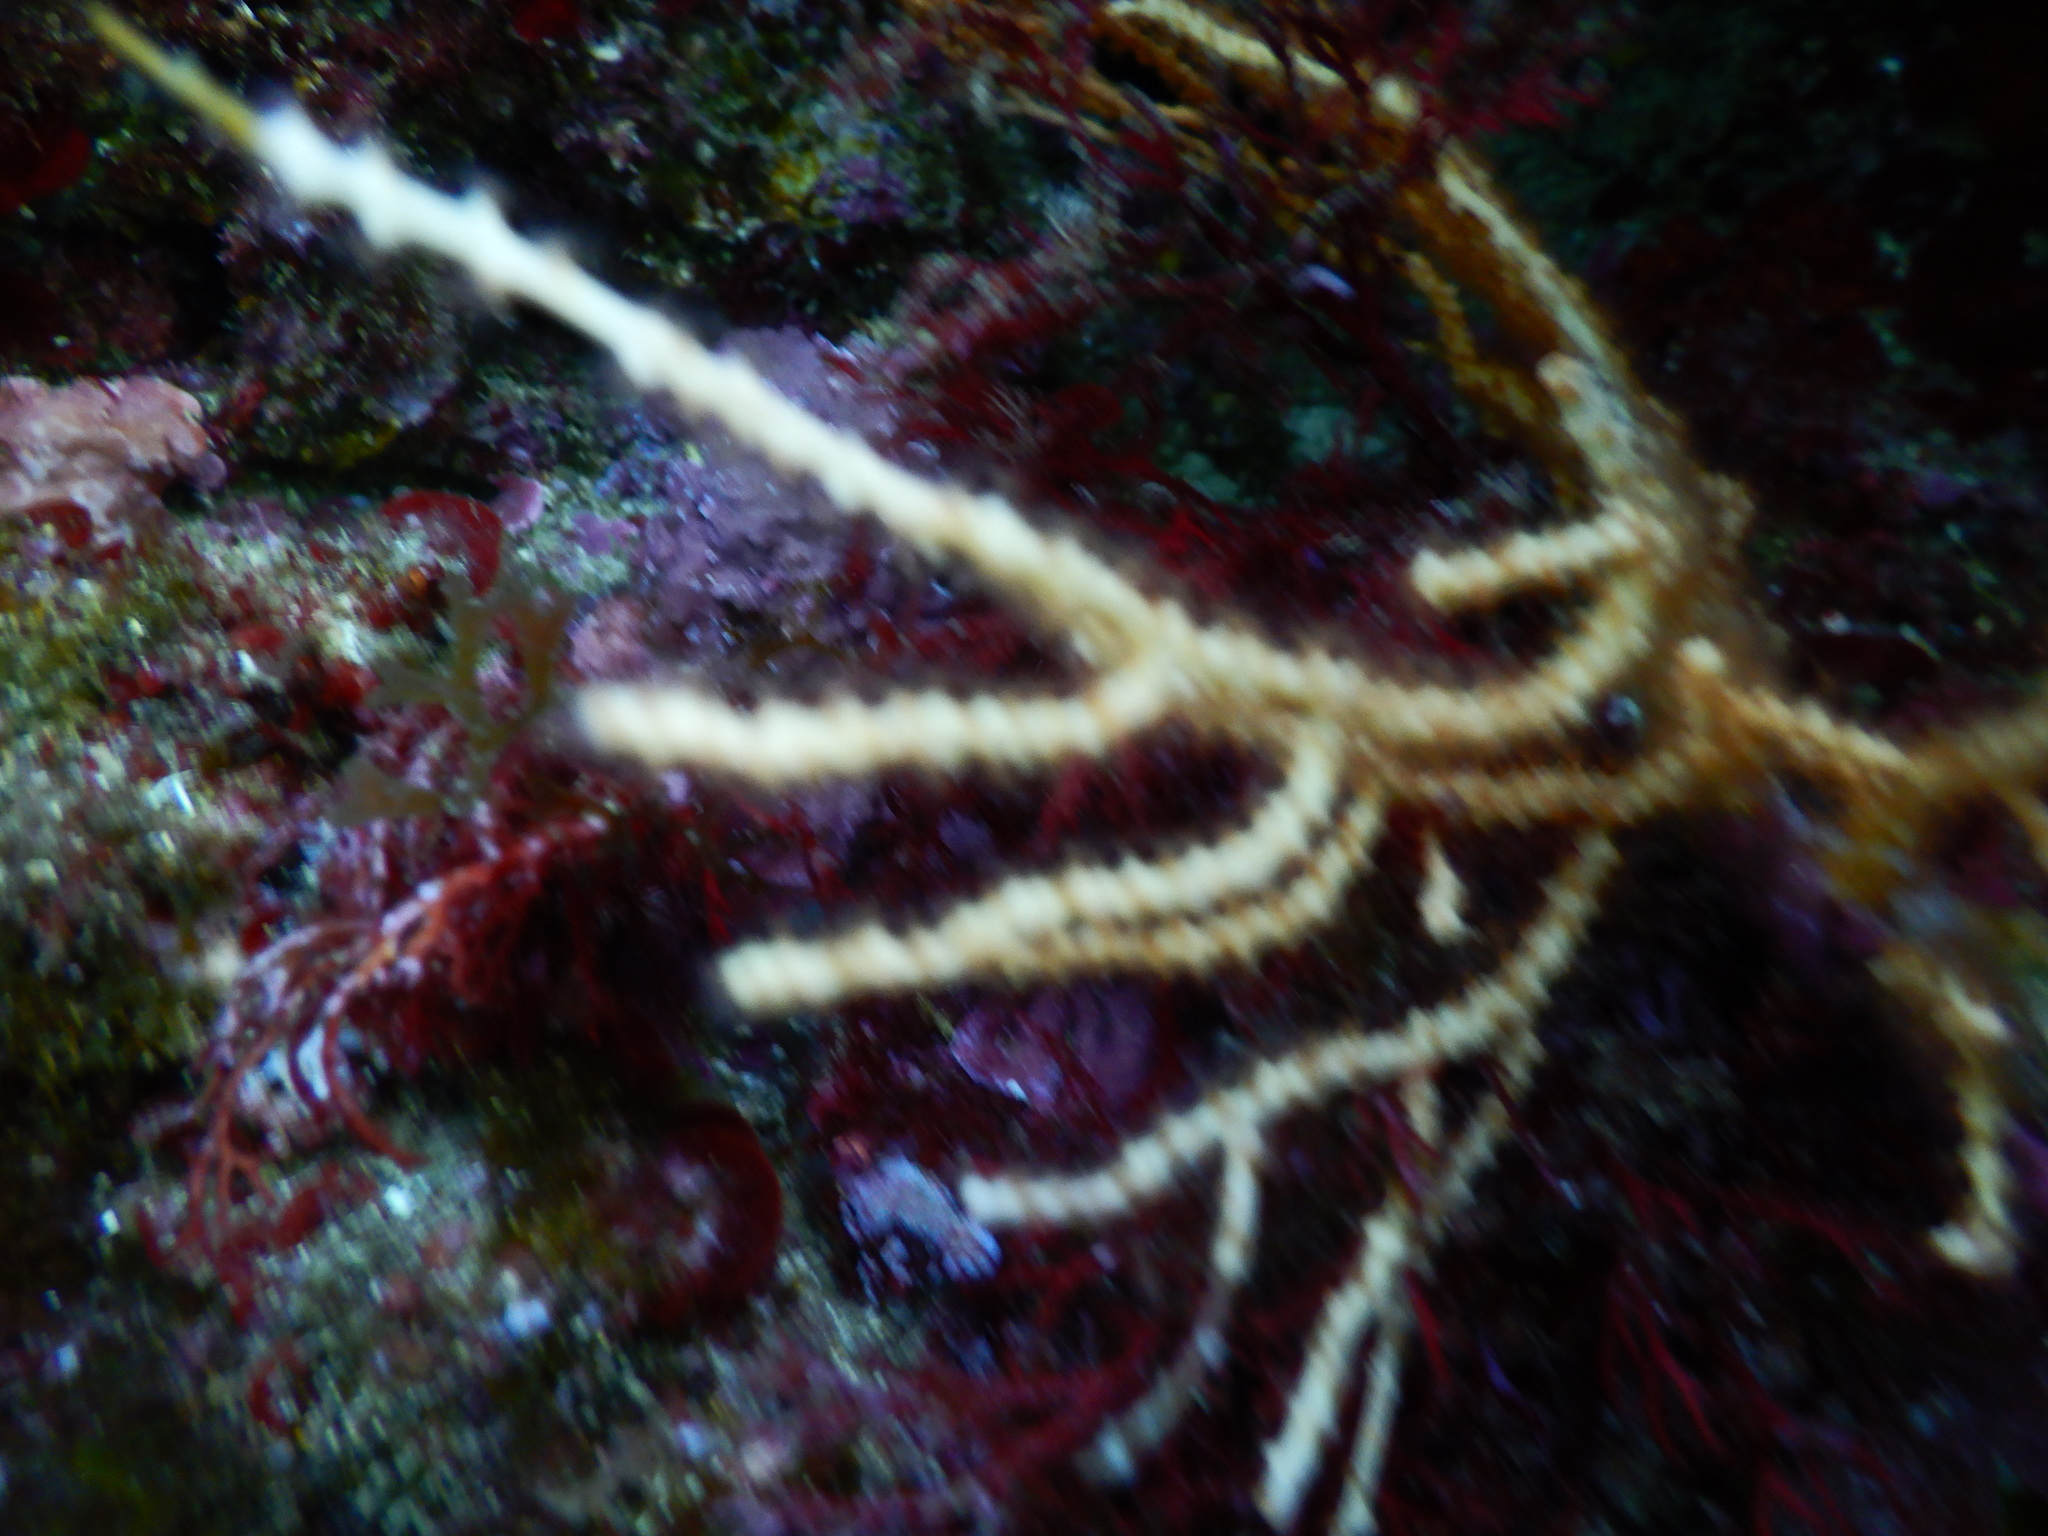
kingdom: Animalia
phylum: Cnidaria
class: Anthozoa
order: Malacalcyonacea
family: Eunicellidae
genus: Eunicella
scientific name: Eunicella singularis
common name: White horny coral
